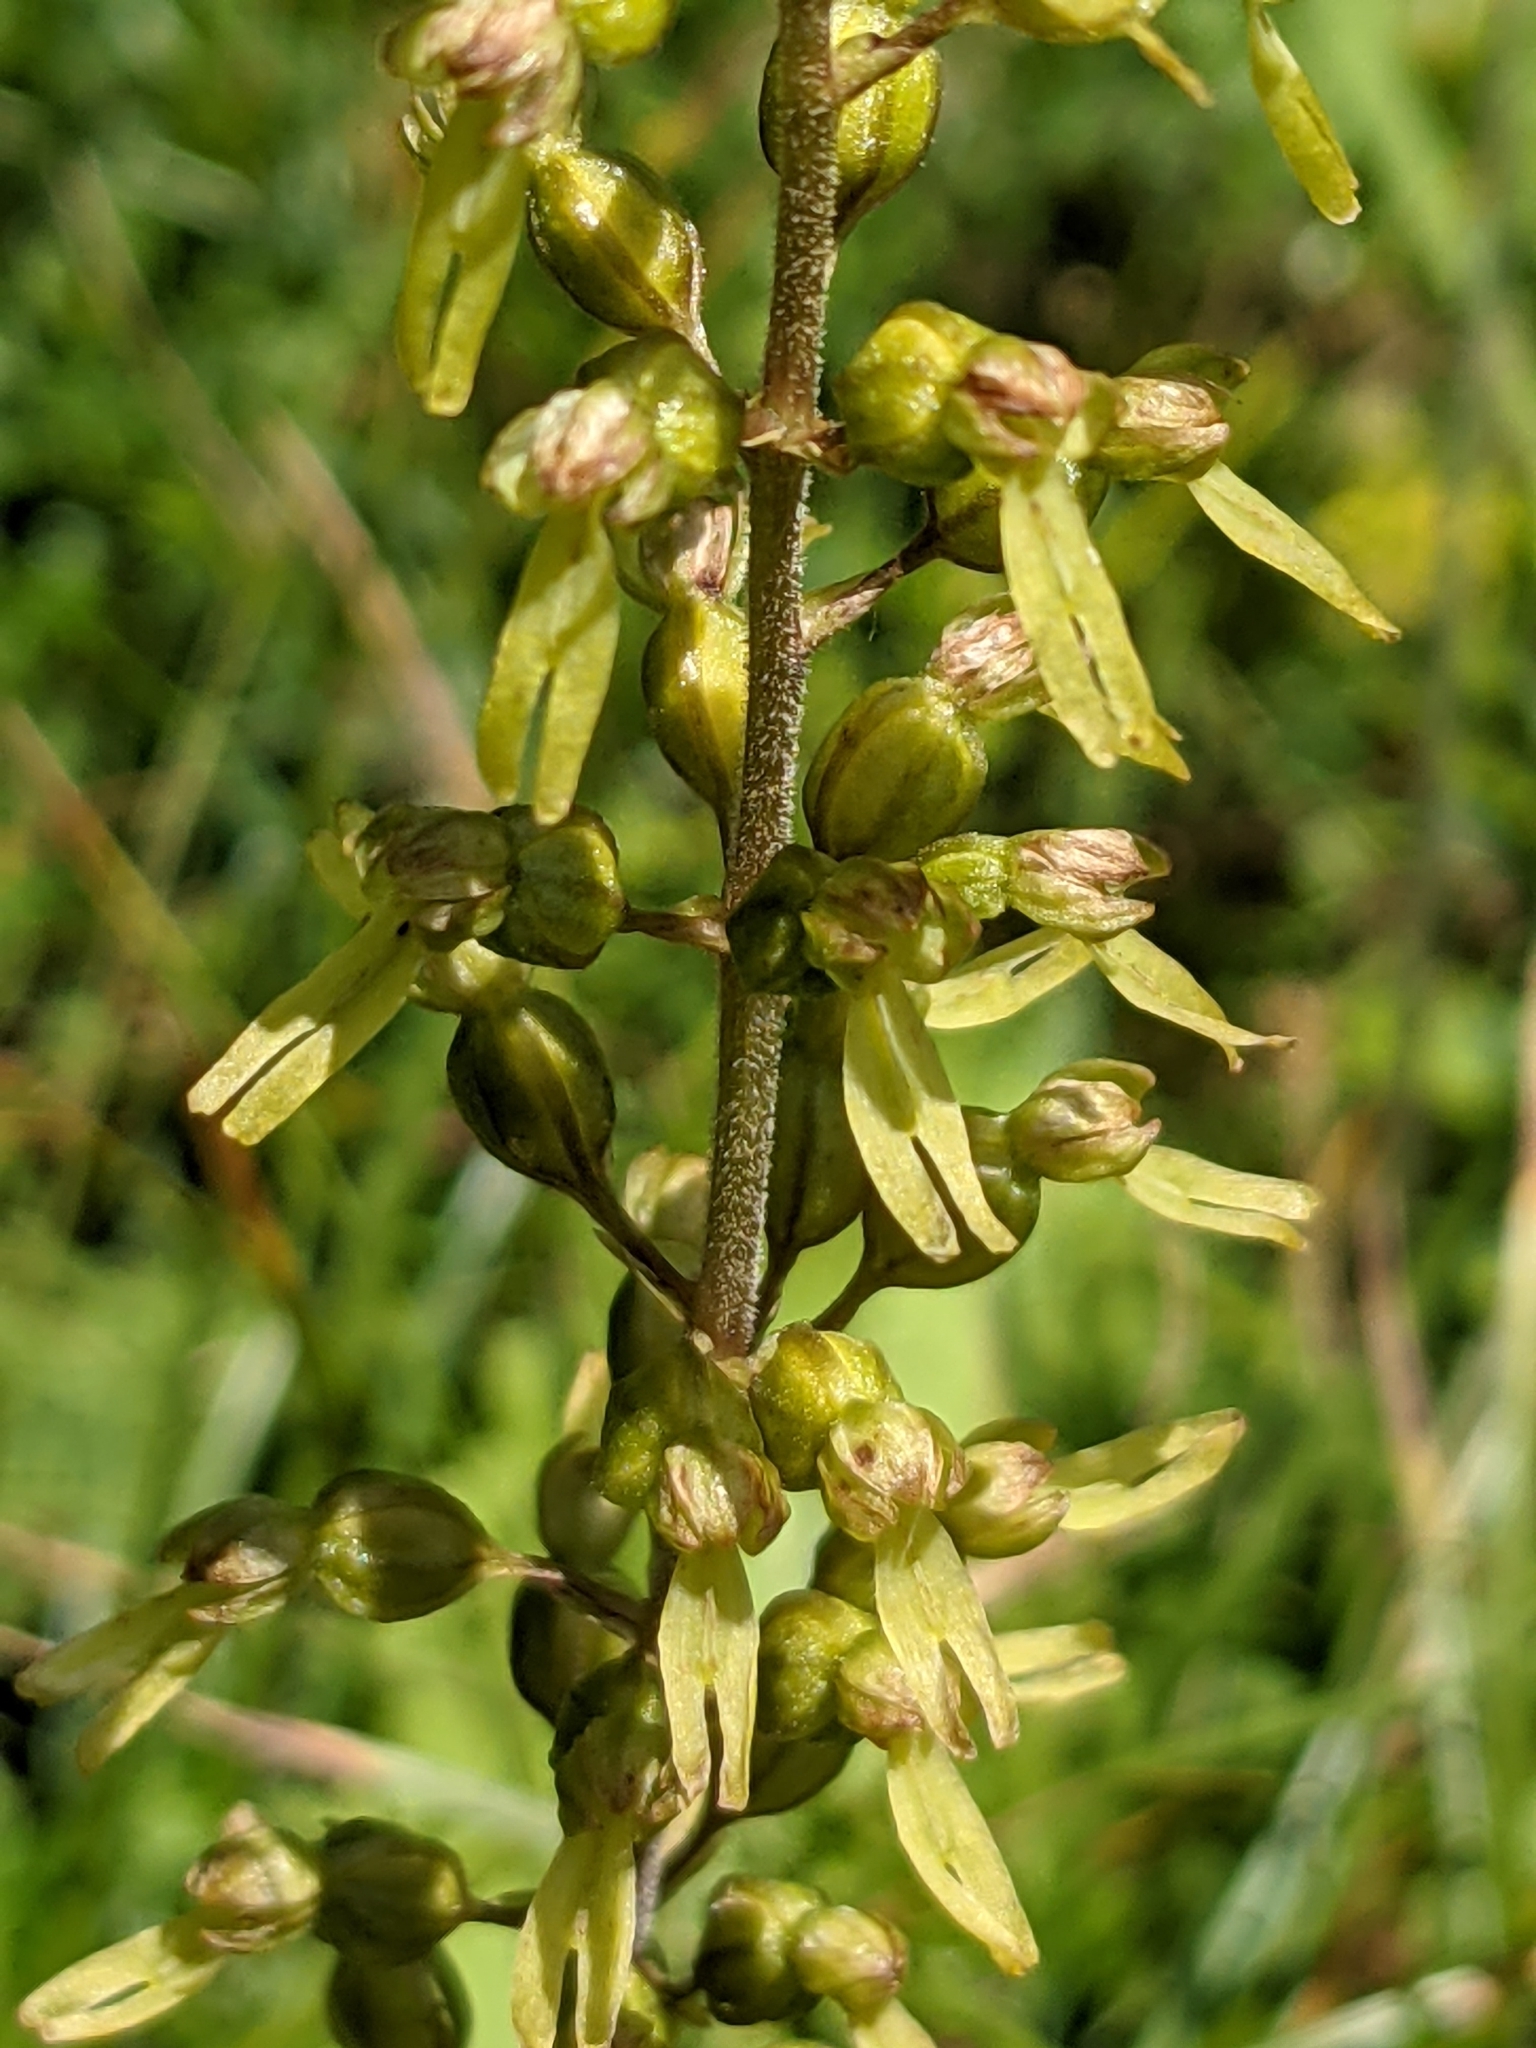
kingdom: Plantae
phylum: Tracheophyta
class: Liliopsida
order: Asparagales
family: Orchidaceae
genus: Neottia
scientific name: Neottia ovata
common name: Common twayblade
